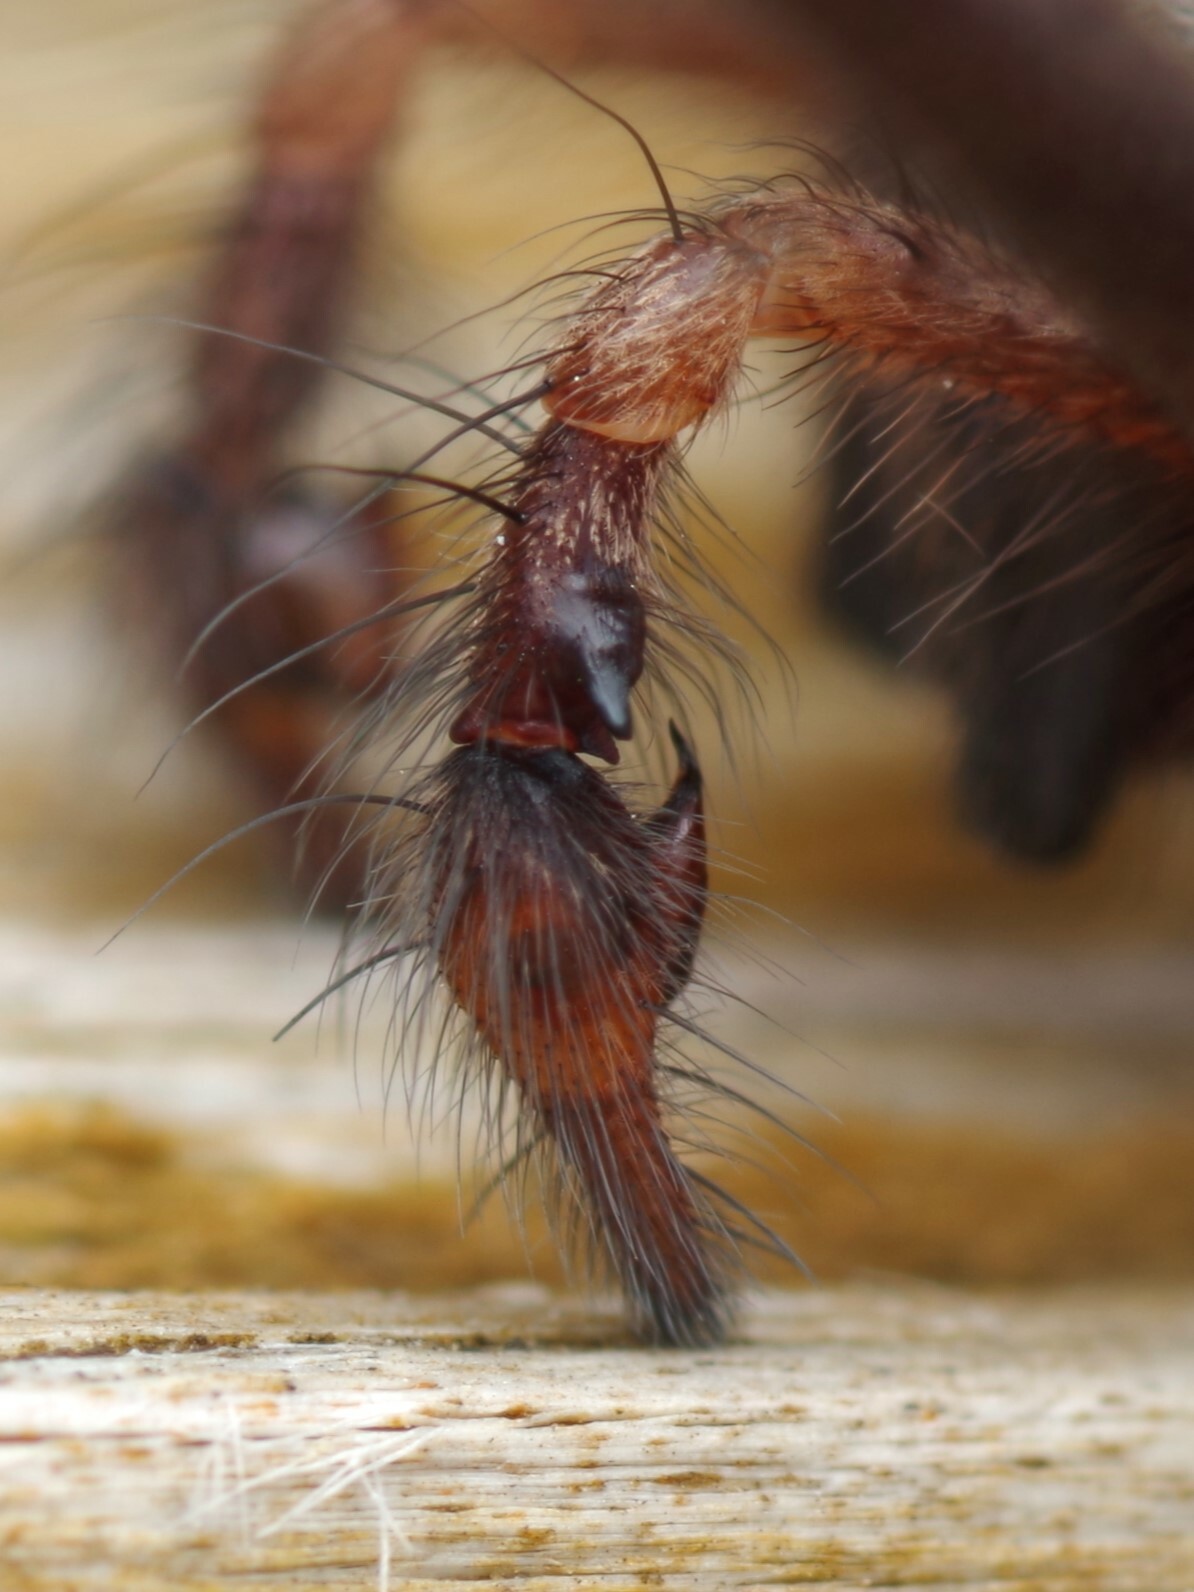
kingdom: Animalia
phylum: Arthropoda
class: Arachnida
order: Araneae
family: Agelenidae
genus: Eratigena
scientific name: Eratigena saeva
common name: House spider
